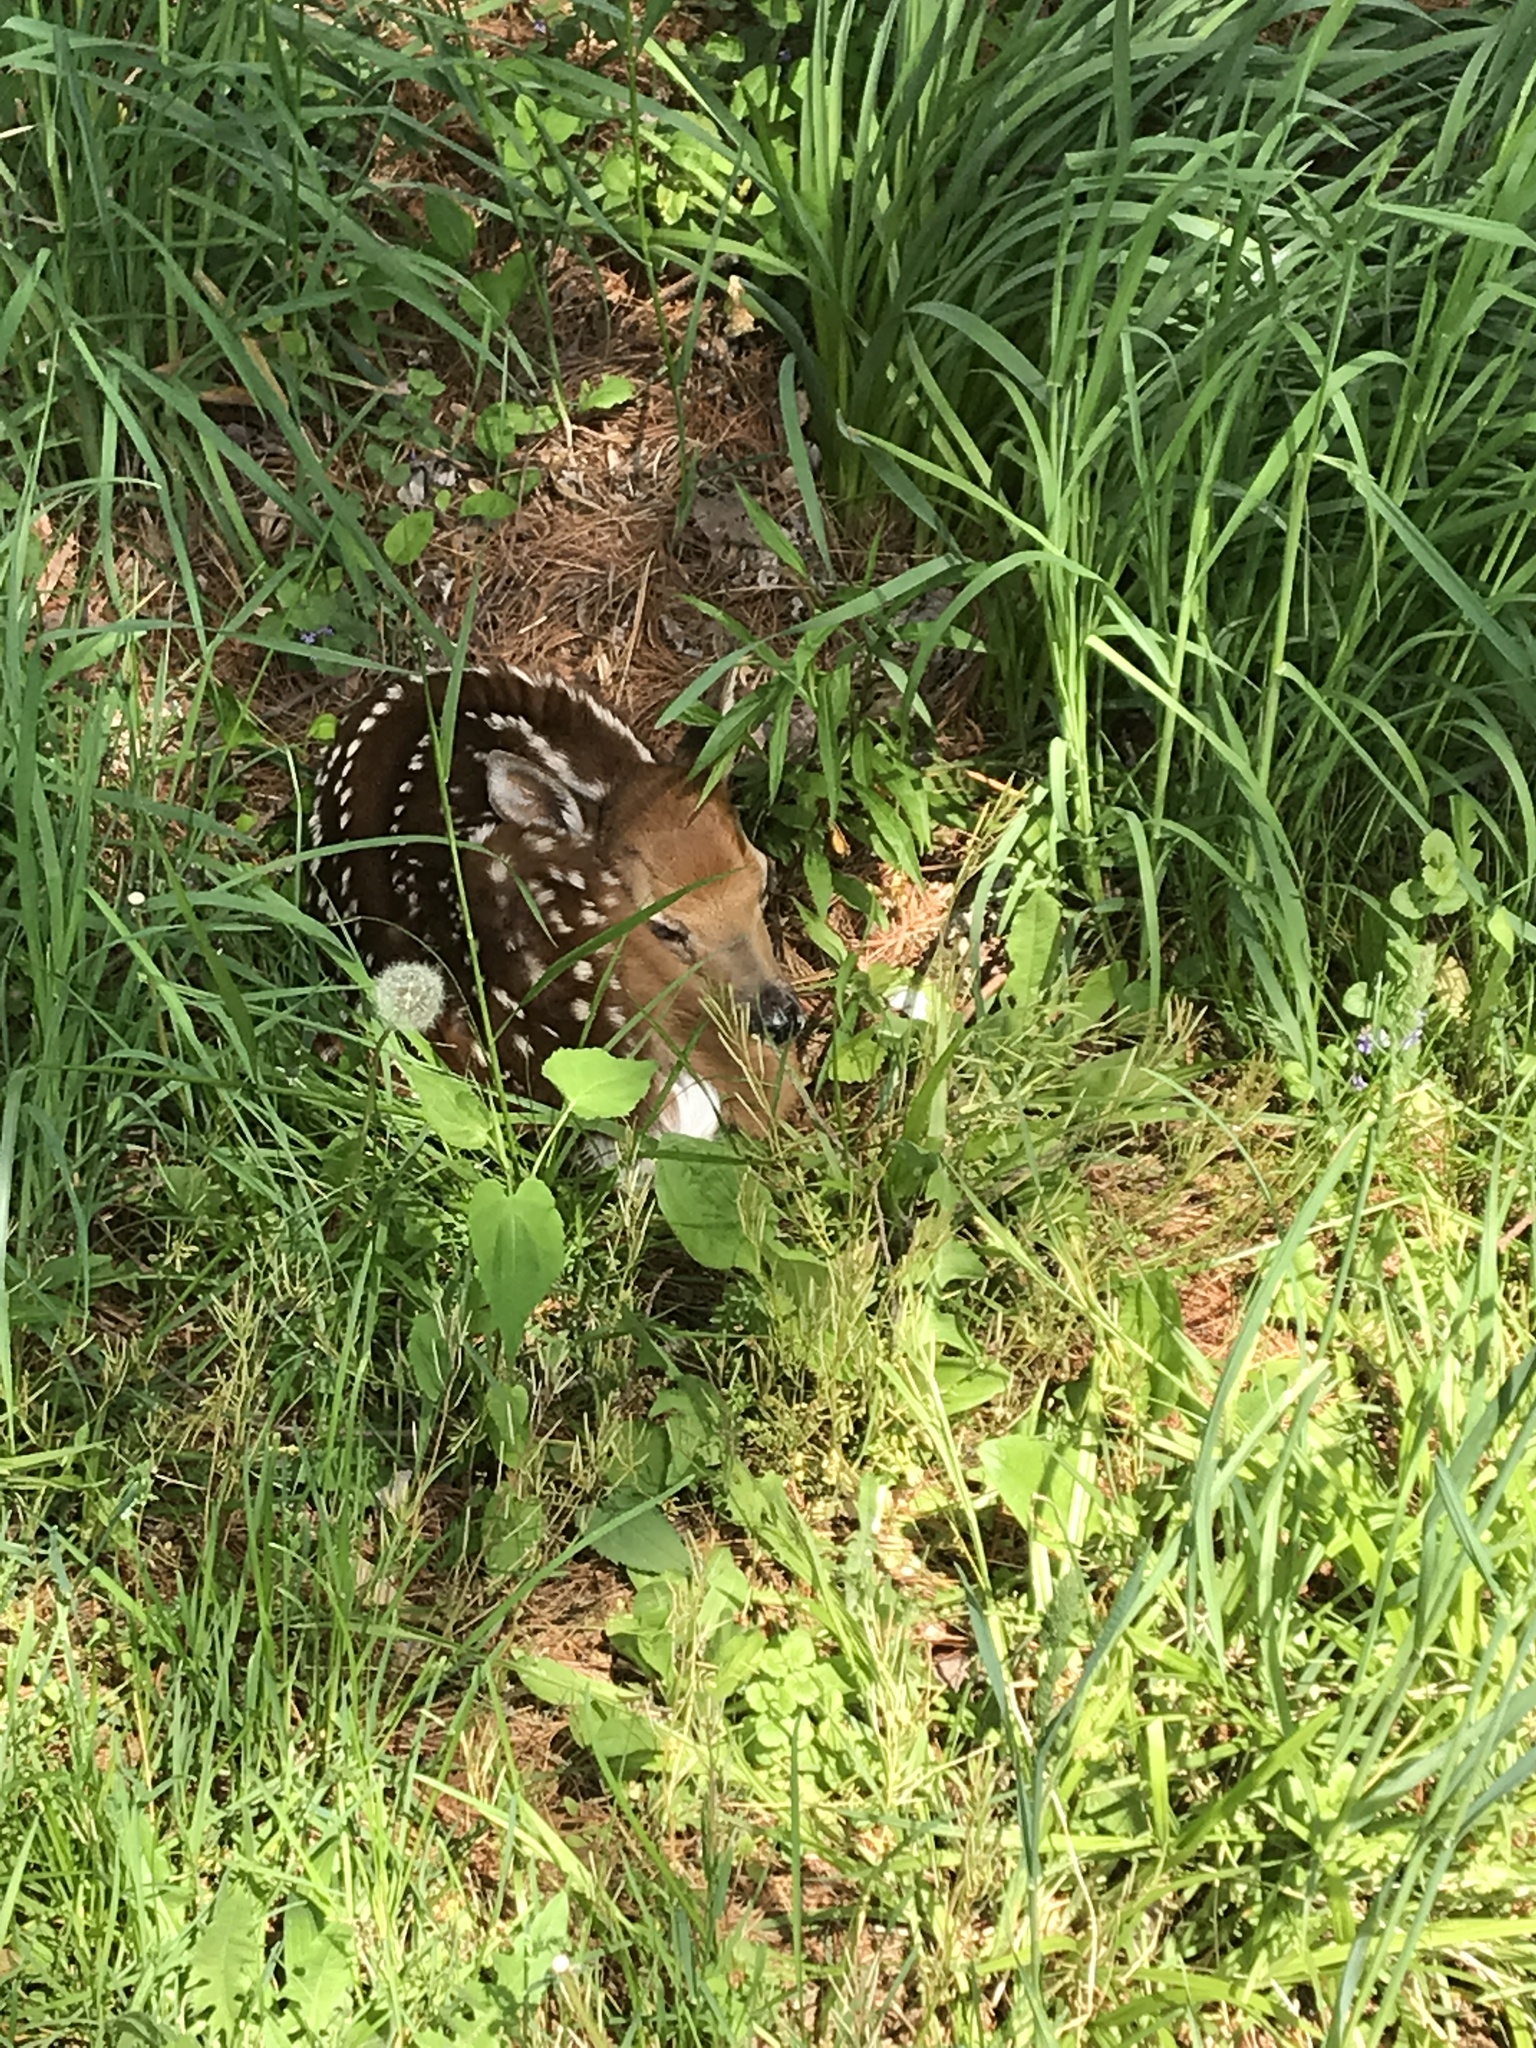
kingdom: Animalia
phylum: Chordata
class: Mammalia
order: Artiodactyla
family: Cervidae
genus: Odocoileus
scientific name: Odocoileus virginianus
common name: White-tailed deer
